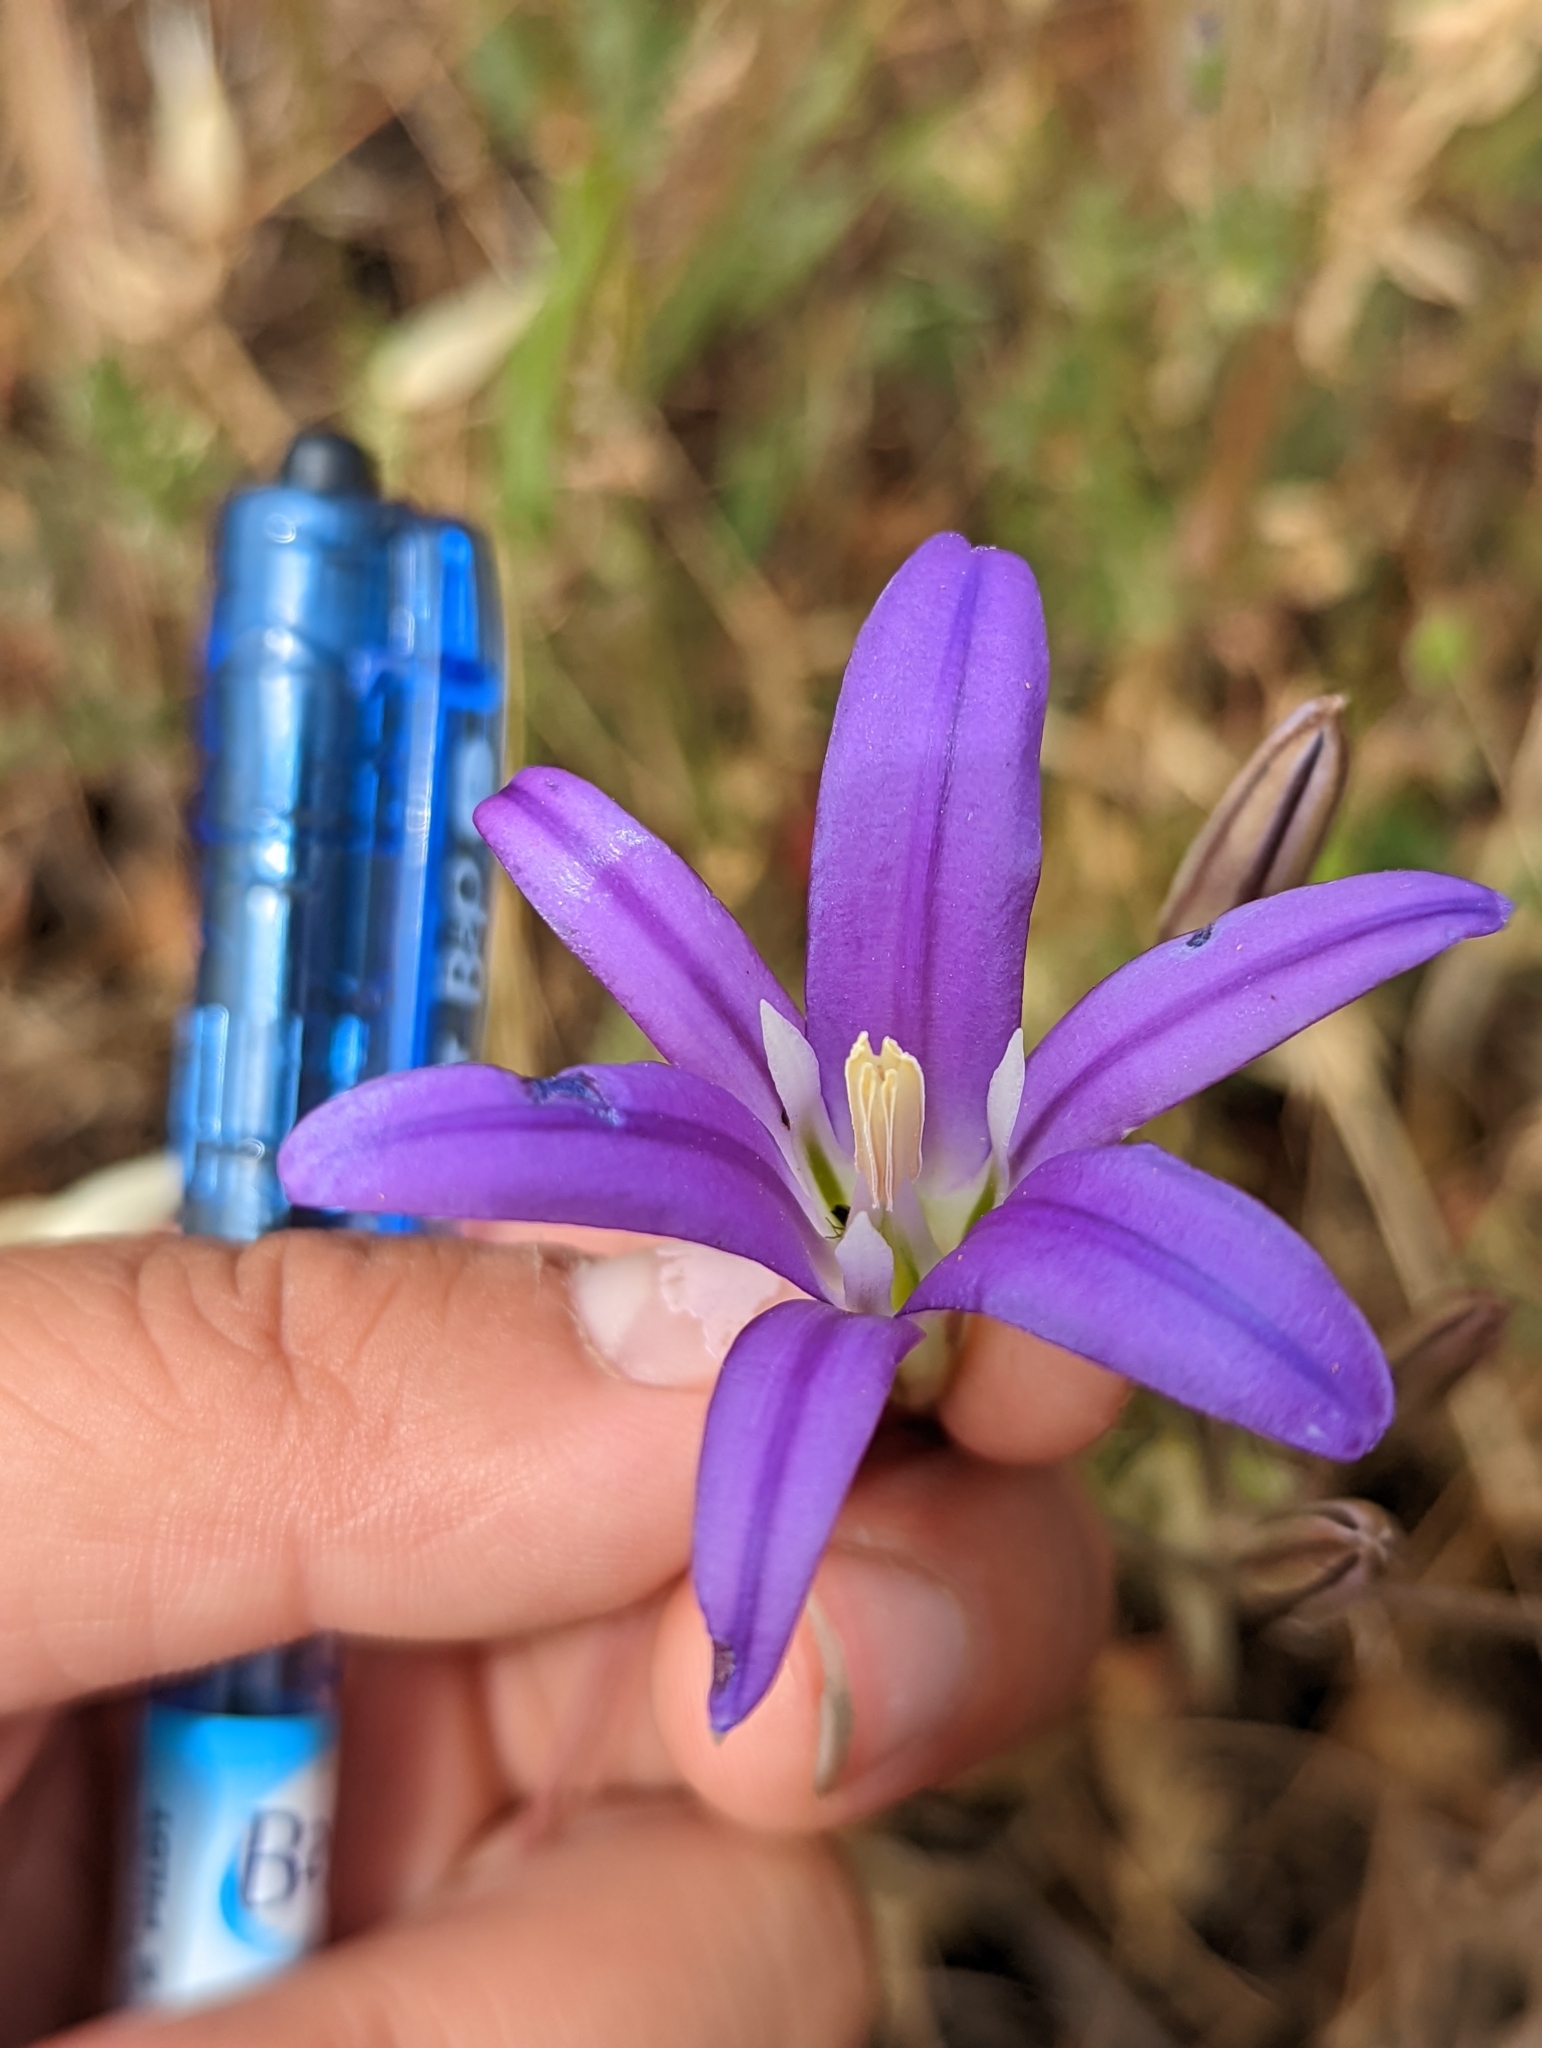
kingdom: Plantae
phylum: Tracheophyta
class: Liliopsida
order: Asparagales
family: Asparagaceae
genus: Brodiaea
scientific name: Brodiaea elegans
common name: Elegant cluster-lily
